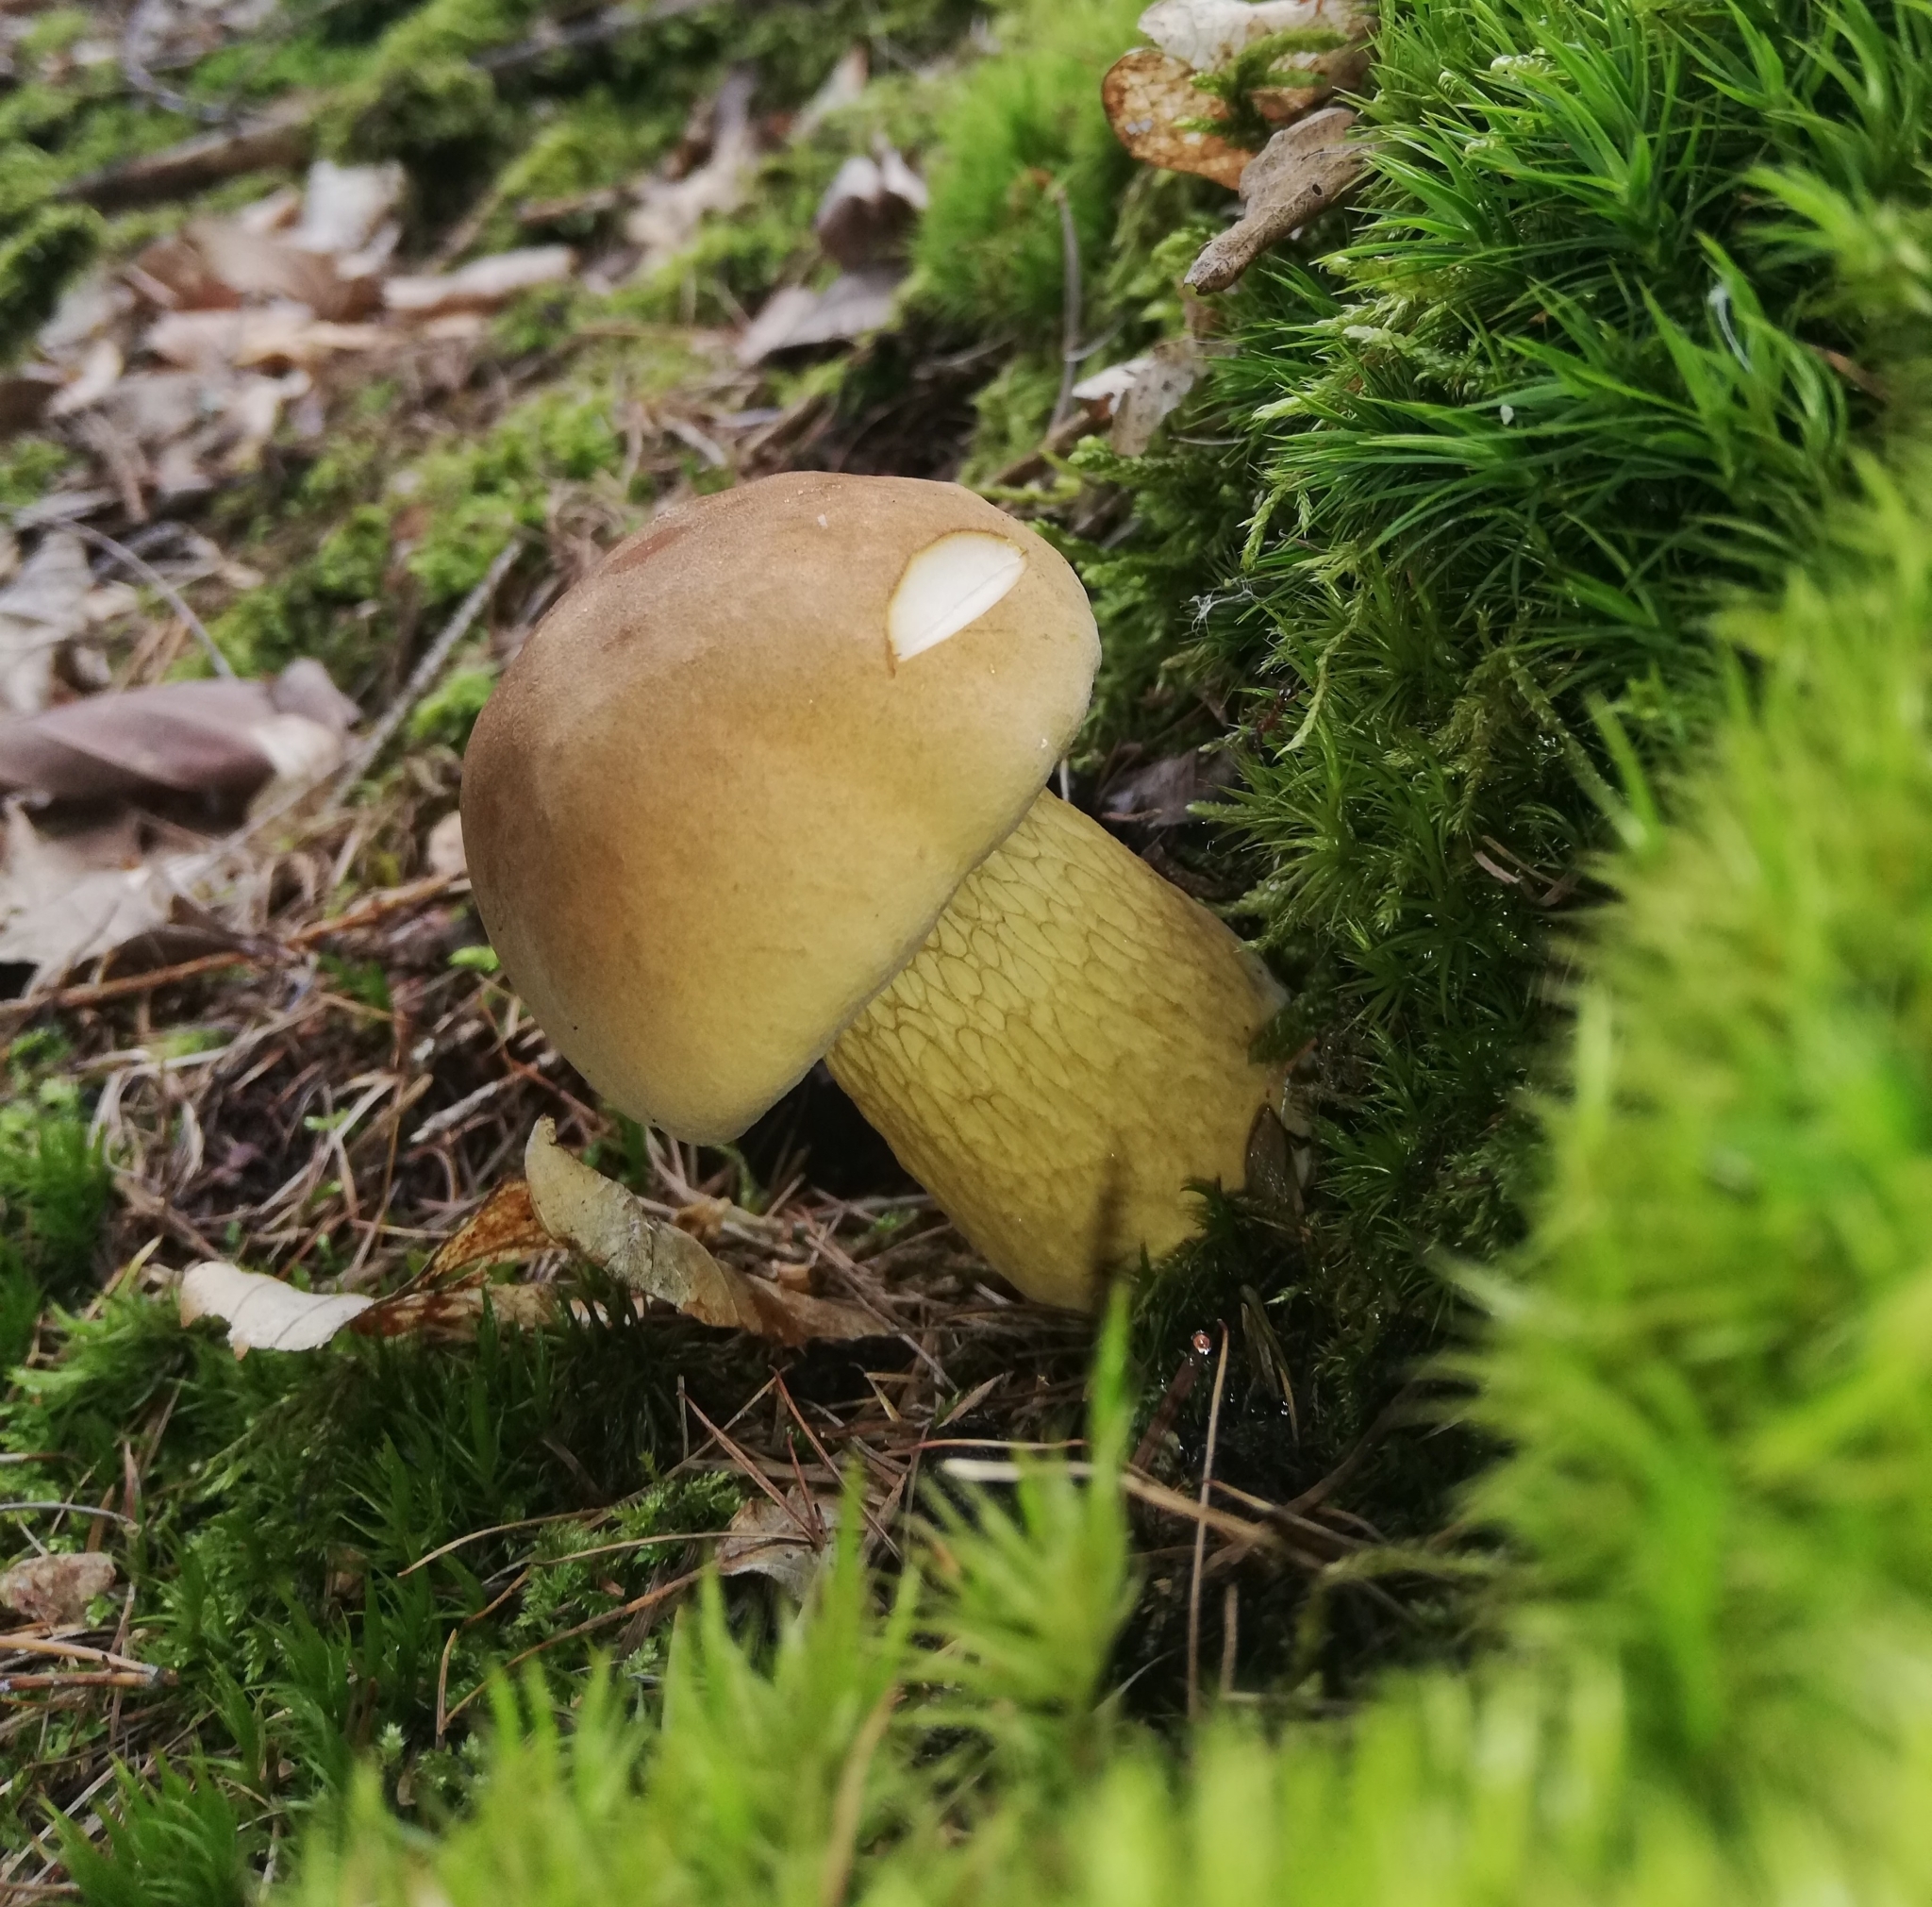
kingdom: Fungi
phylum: Basidiomycota
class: Agaricomycetes
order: Boletales
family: Boletaceae
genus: Tylopilus
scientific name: Tylopilus felleus
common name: Bitter bolete
